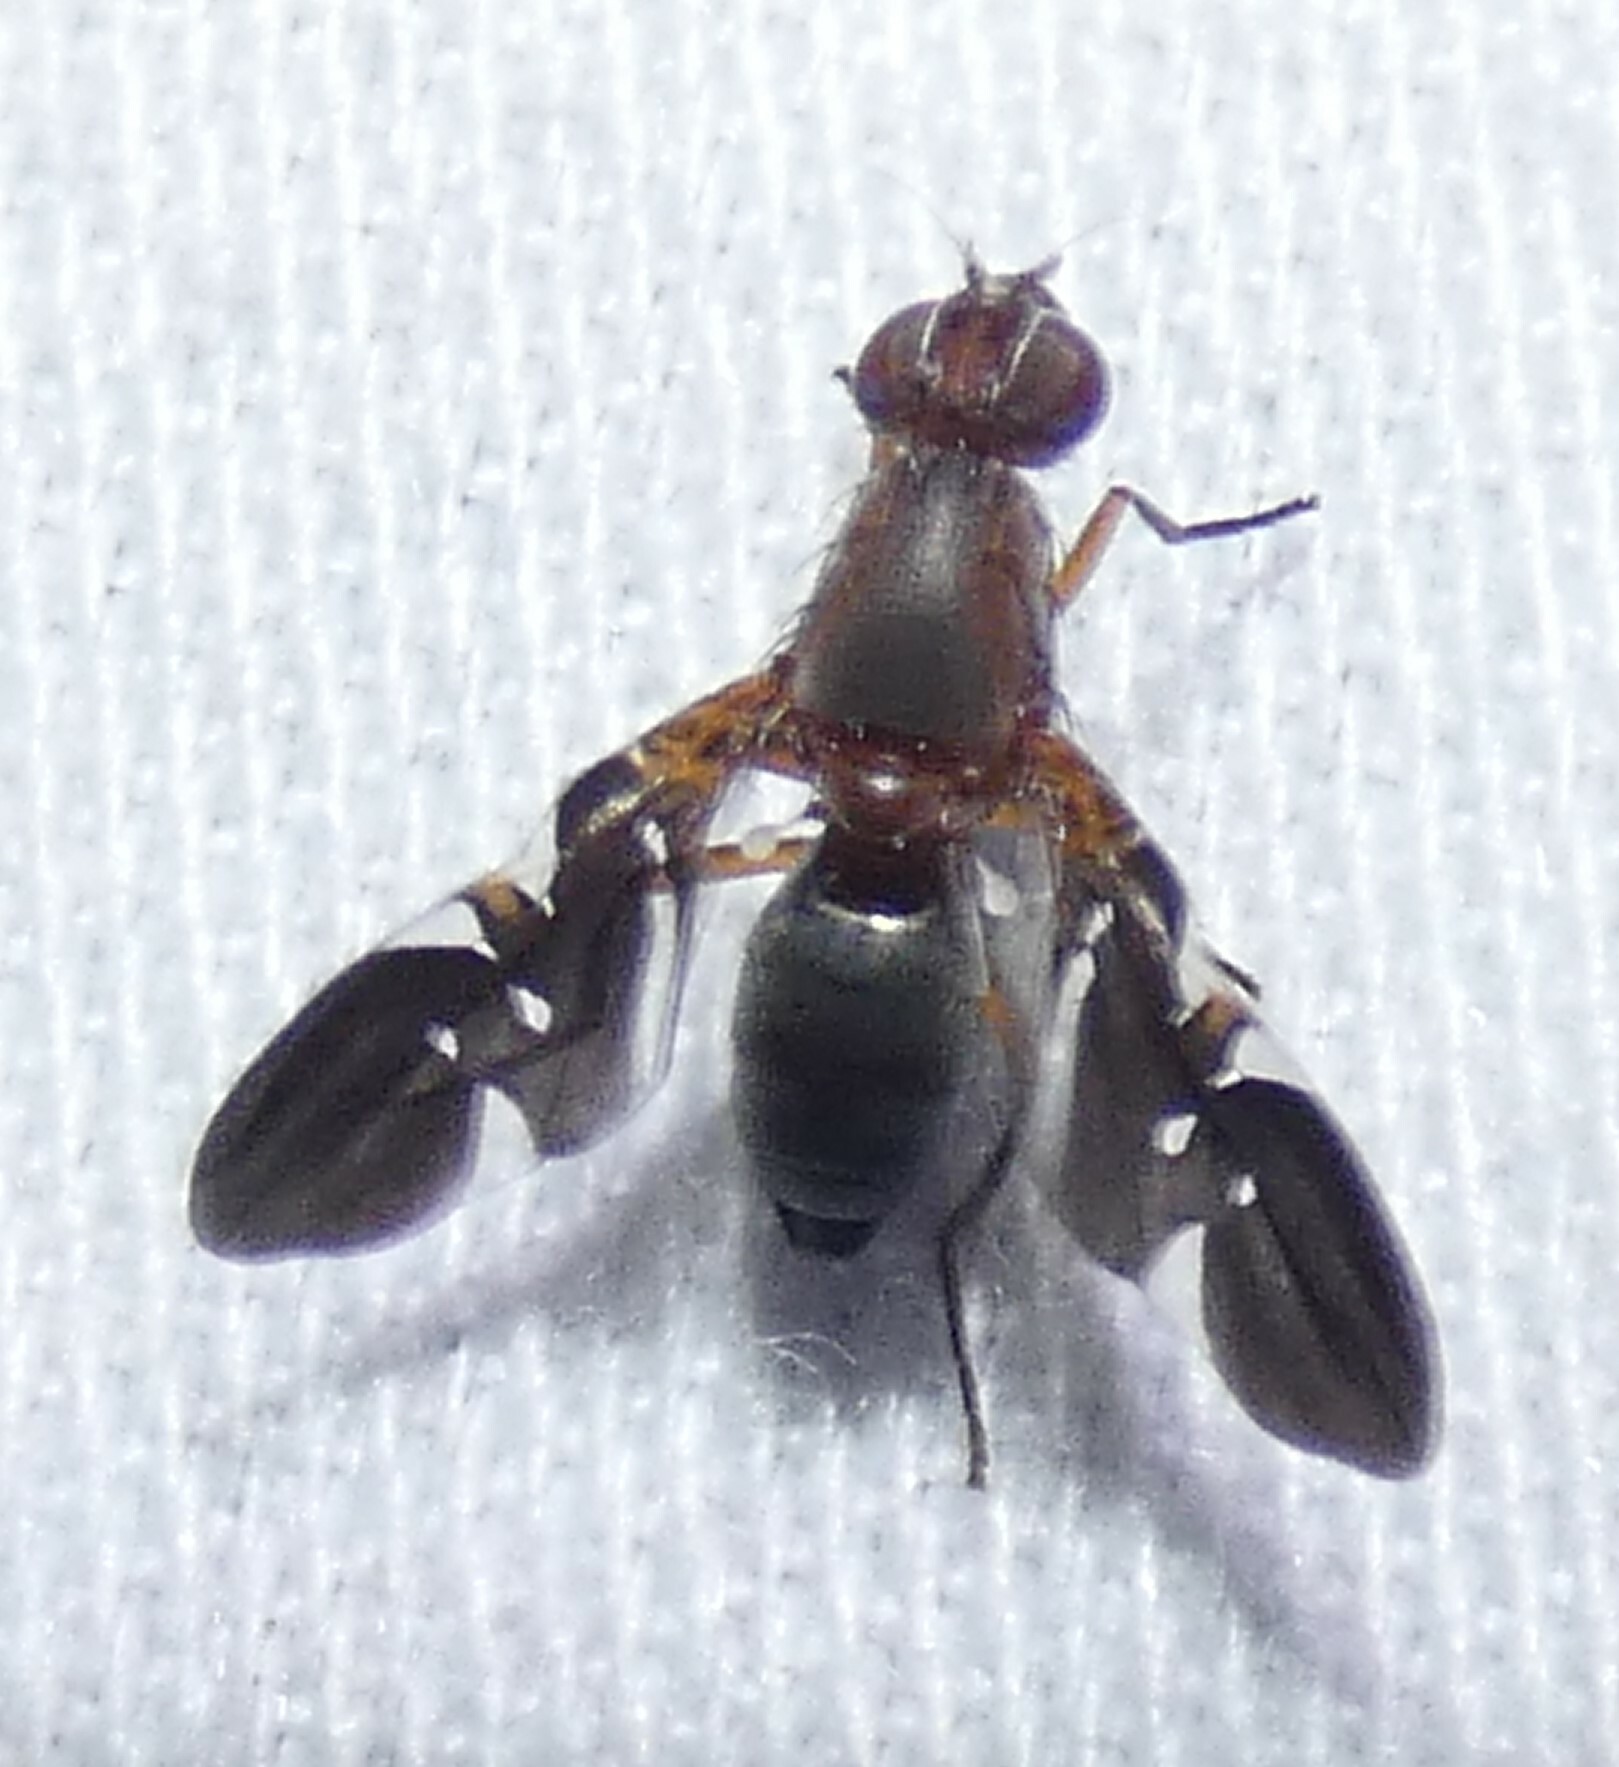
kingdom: Animalia
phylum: Arthropoda
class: Insecta
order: Diptera
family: Ulidiidae
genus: Delphinia
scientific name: Delphinia picta
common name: Common picture-winged fly
